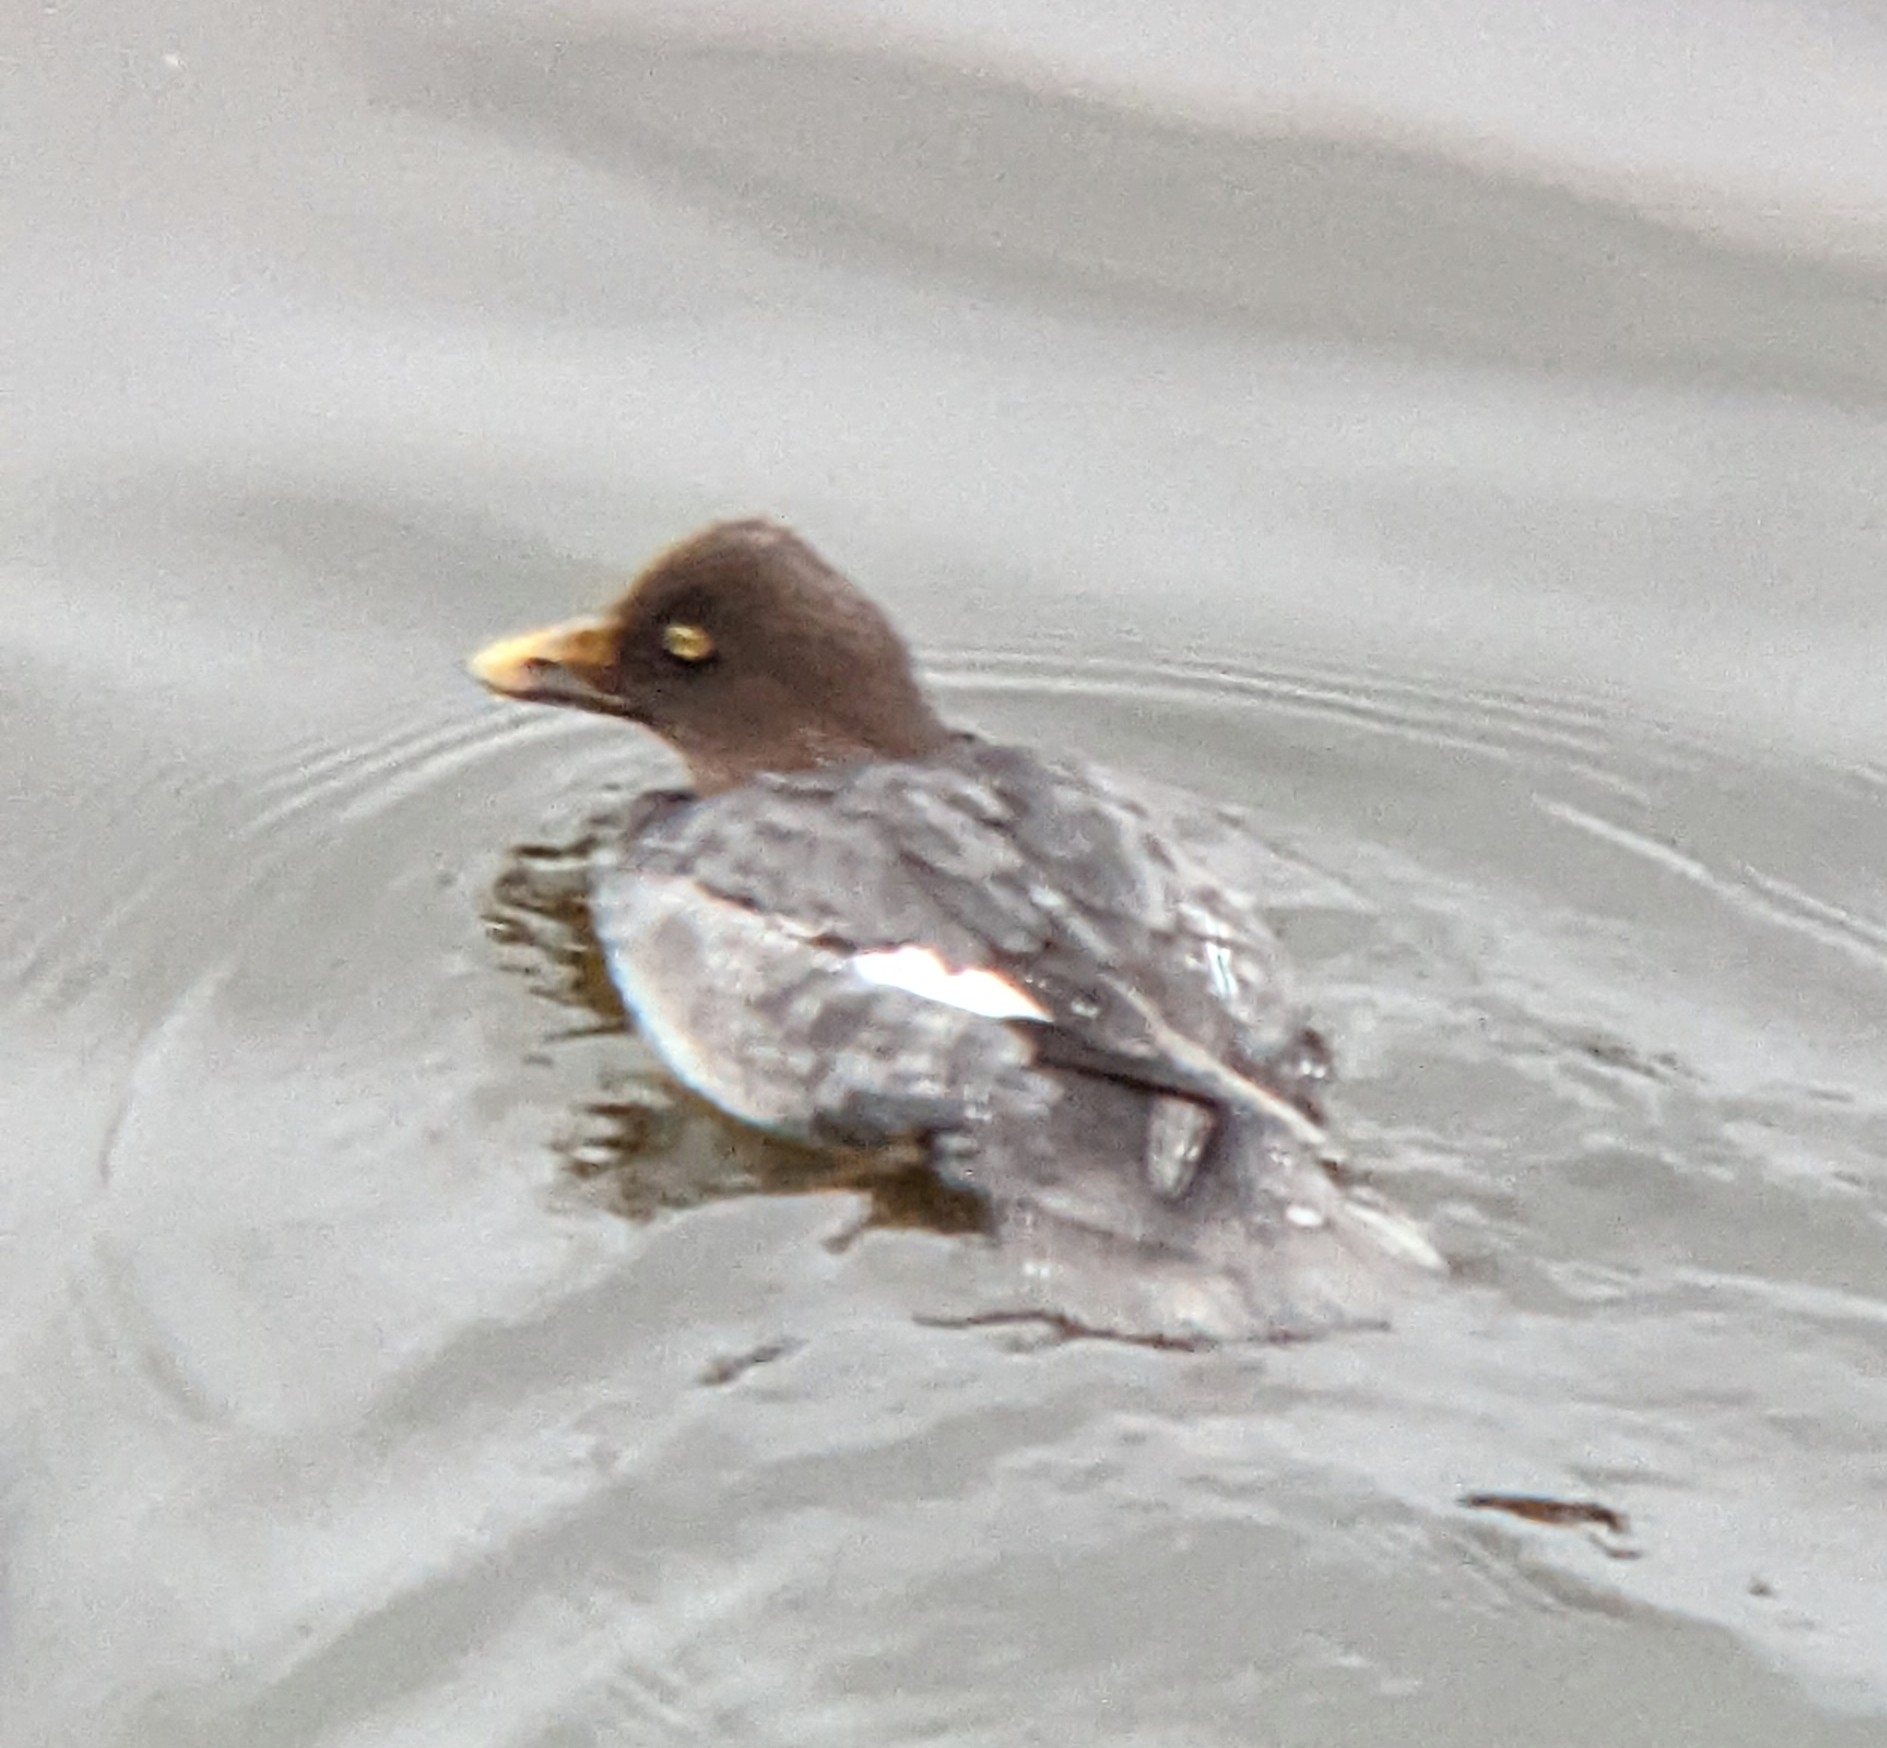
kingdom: Animalia
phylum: Chordata
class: Aves
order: Anseriformes
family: Anatidae
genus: Bucephala
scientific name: Bucephala clangula
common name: Common goldeneye
